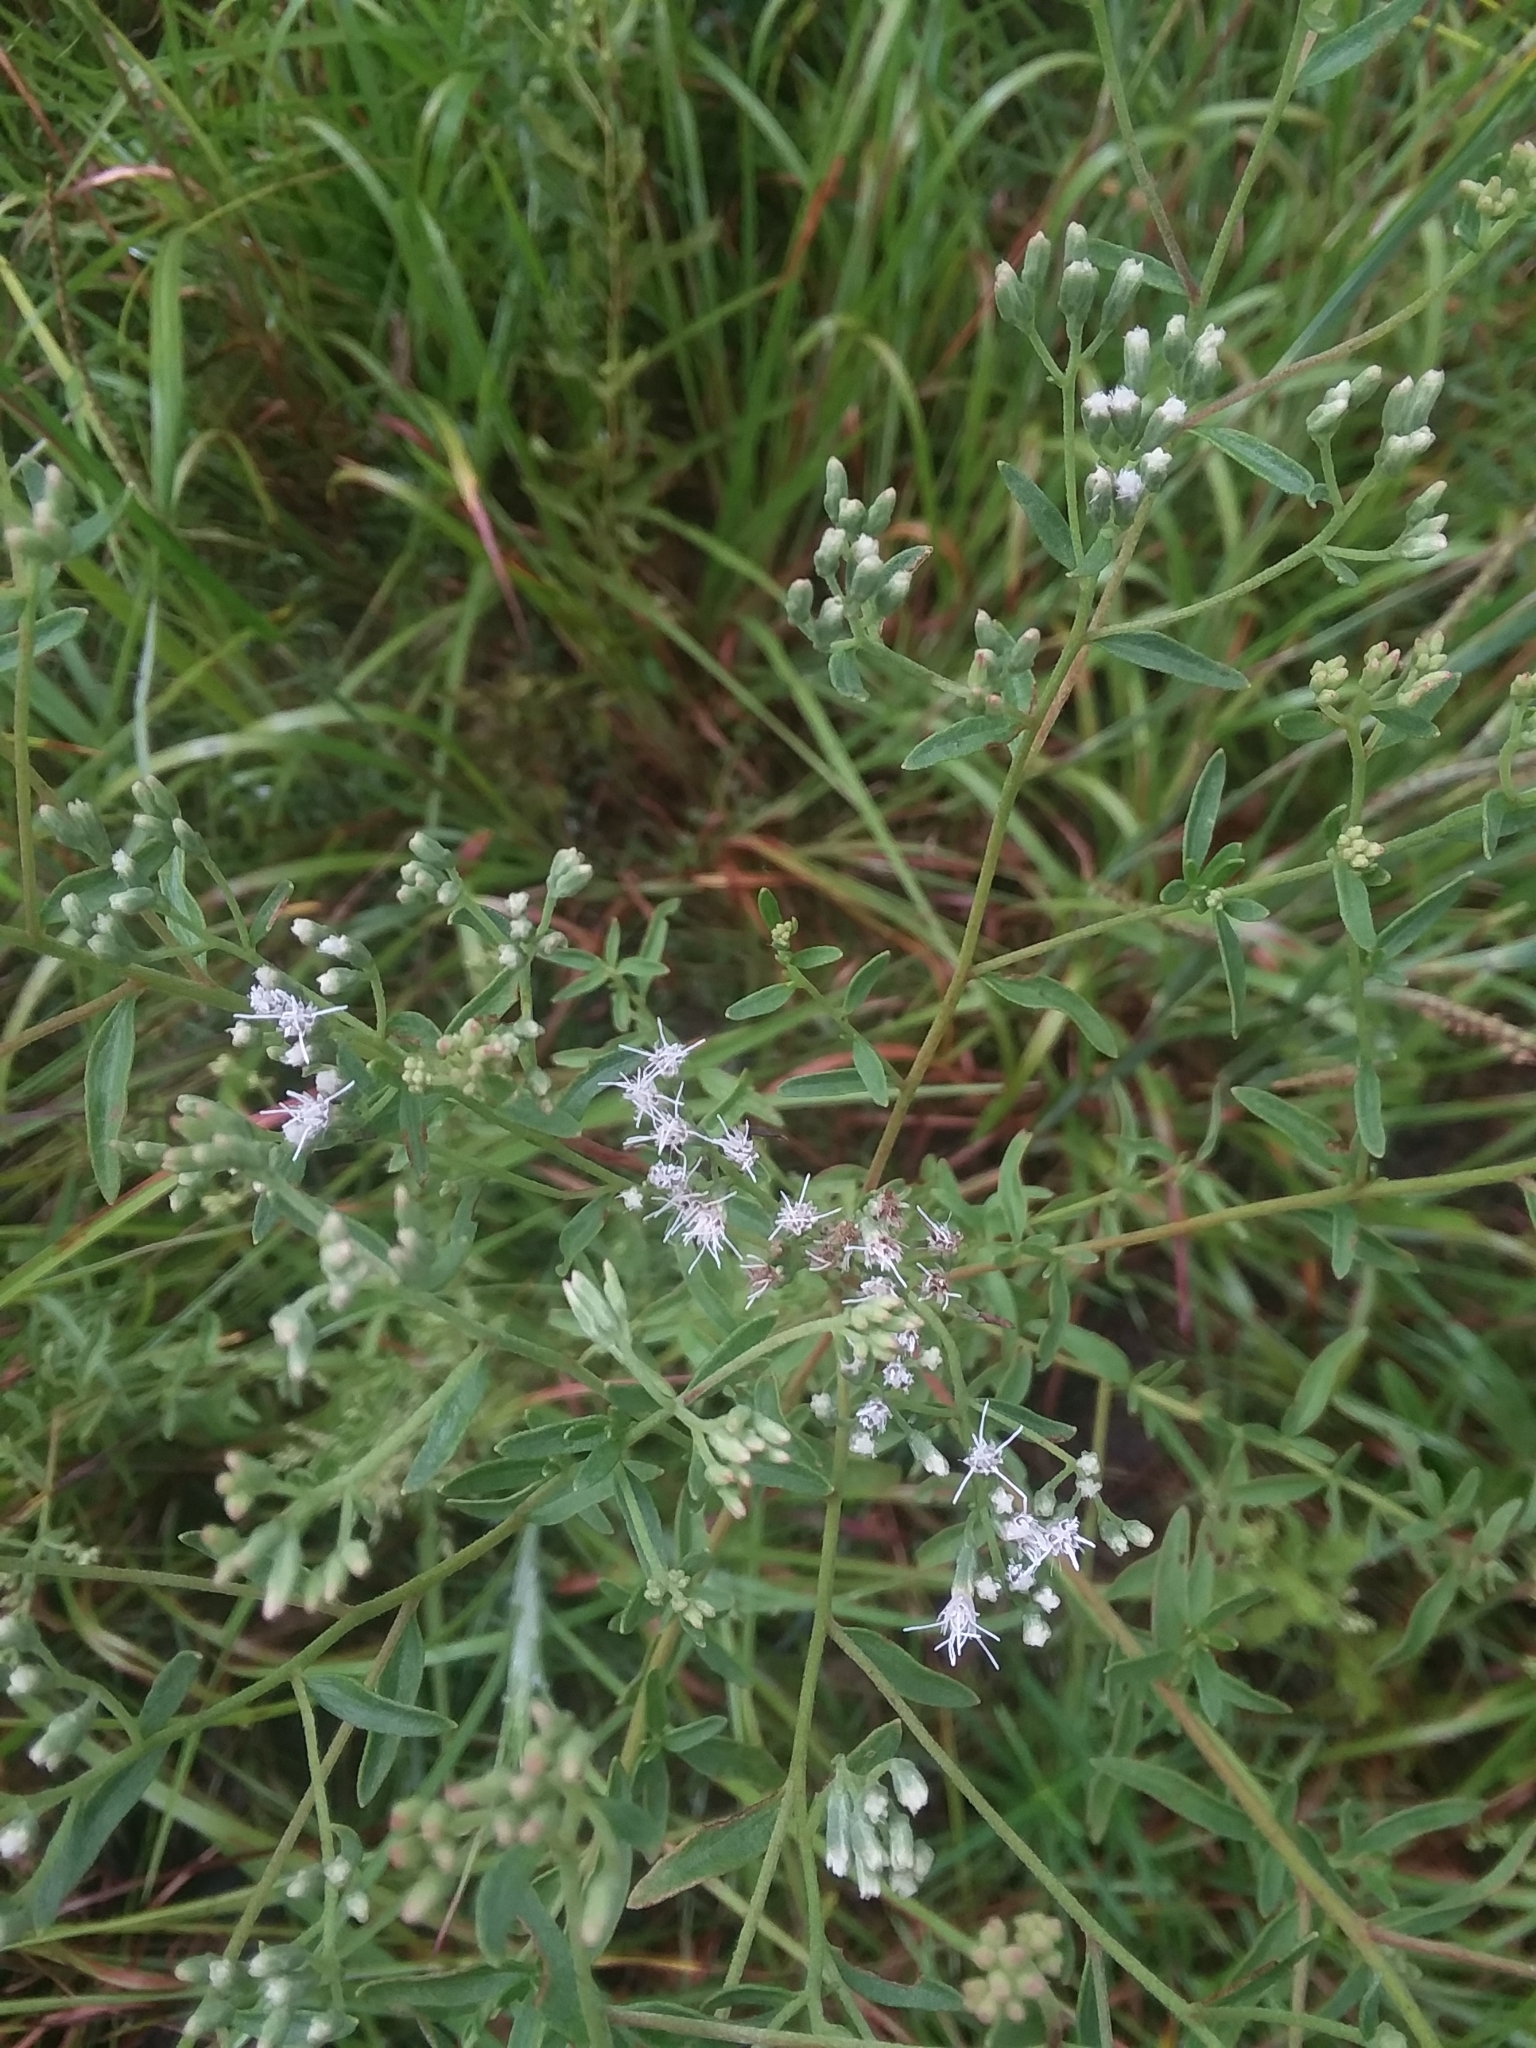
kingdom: Plantae
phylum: Tracheophyta
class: Magnoliopsida
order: Asterales
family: Asteraceae
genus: Eupatorium
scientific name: Eupatorium mohrii
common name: Mohr's thoroughwort
